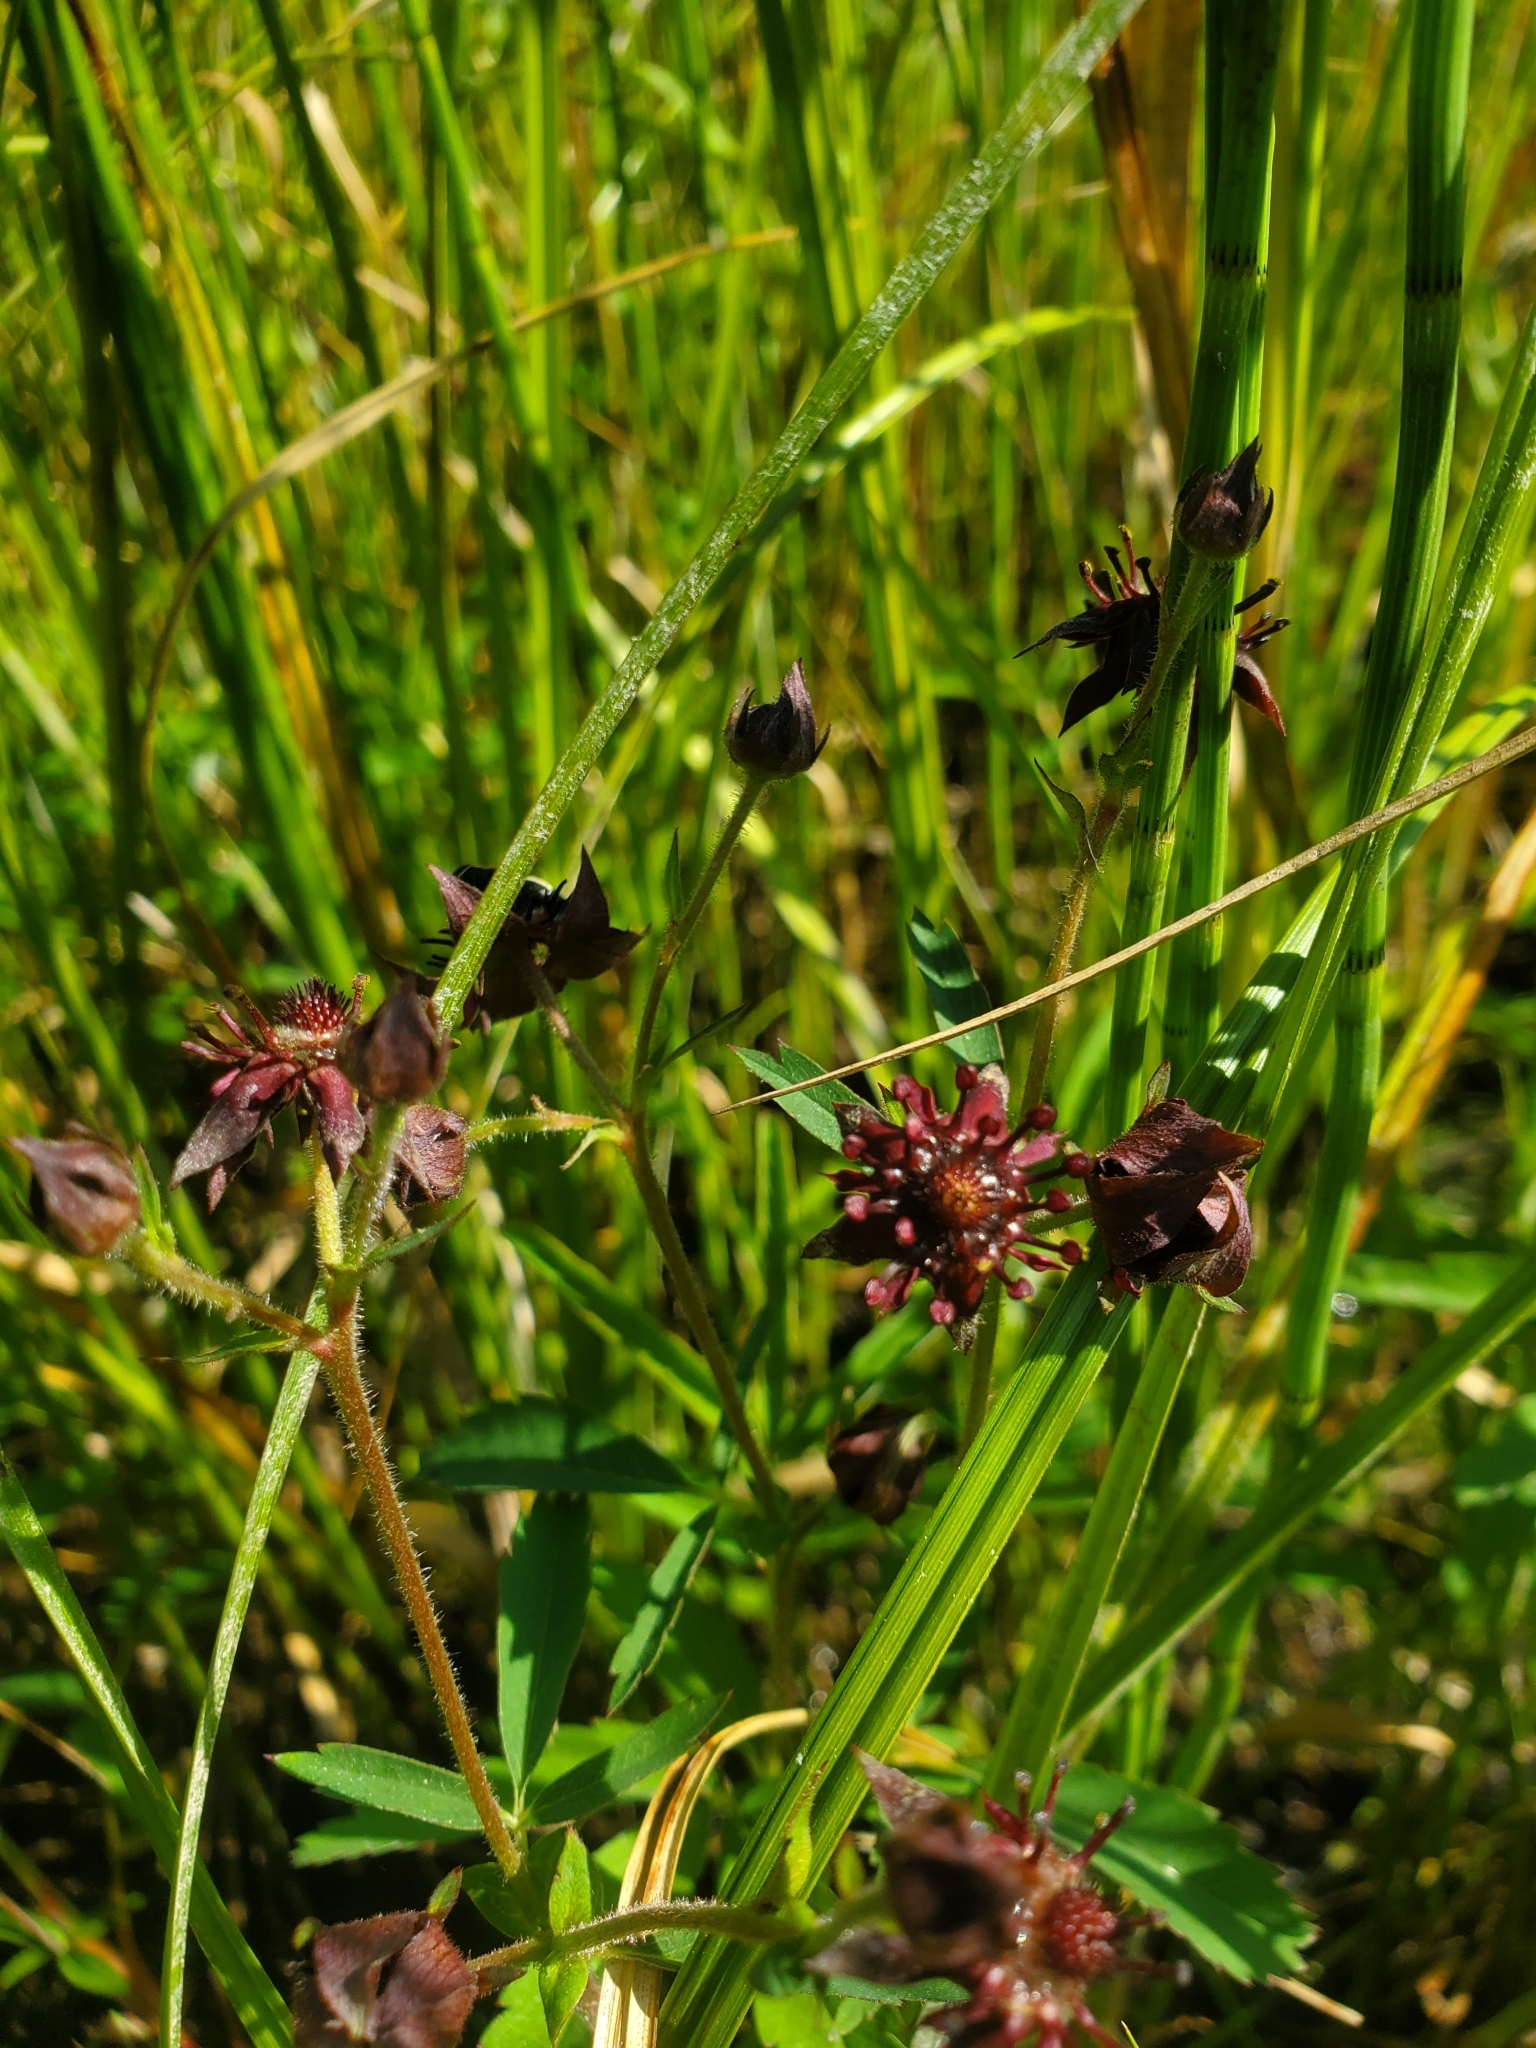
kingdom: Plantae
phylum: Tracheophyta
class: Magnoliopsida
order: Rosales
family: Rosaceae
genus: Comarum
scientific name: Comarum palustre
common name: Marsh cinquefoil
